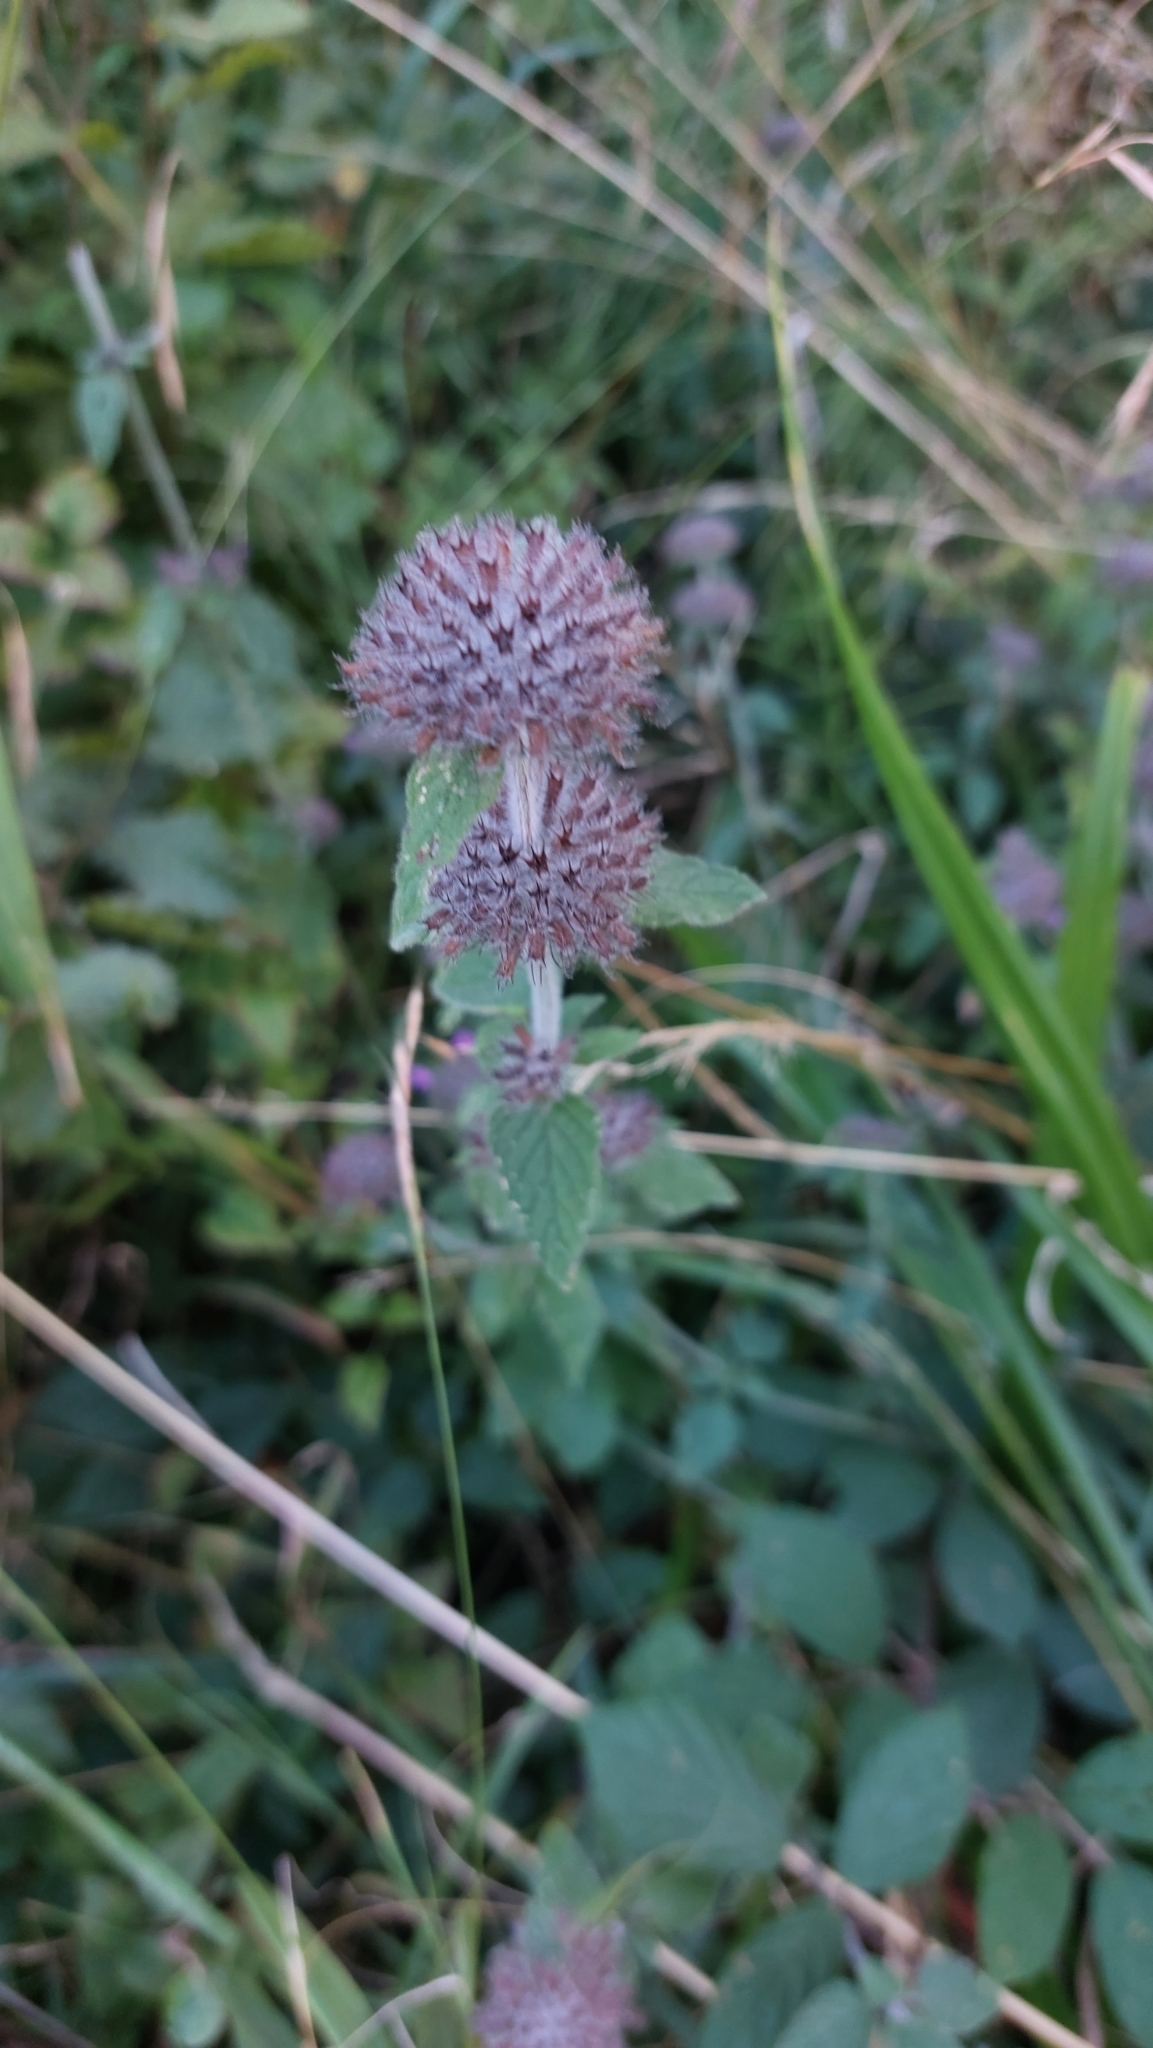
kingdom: Plantae
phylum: Tracheophyta
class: Magnoliopsida
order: Lamiales
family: Lamiaceae
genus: Clinopodium
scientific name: Clinopodium vulgare
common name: Wild basil
